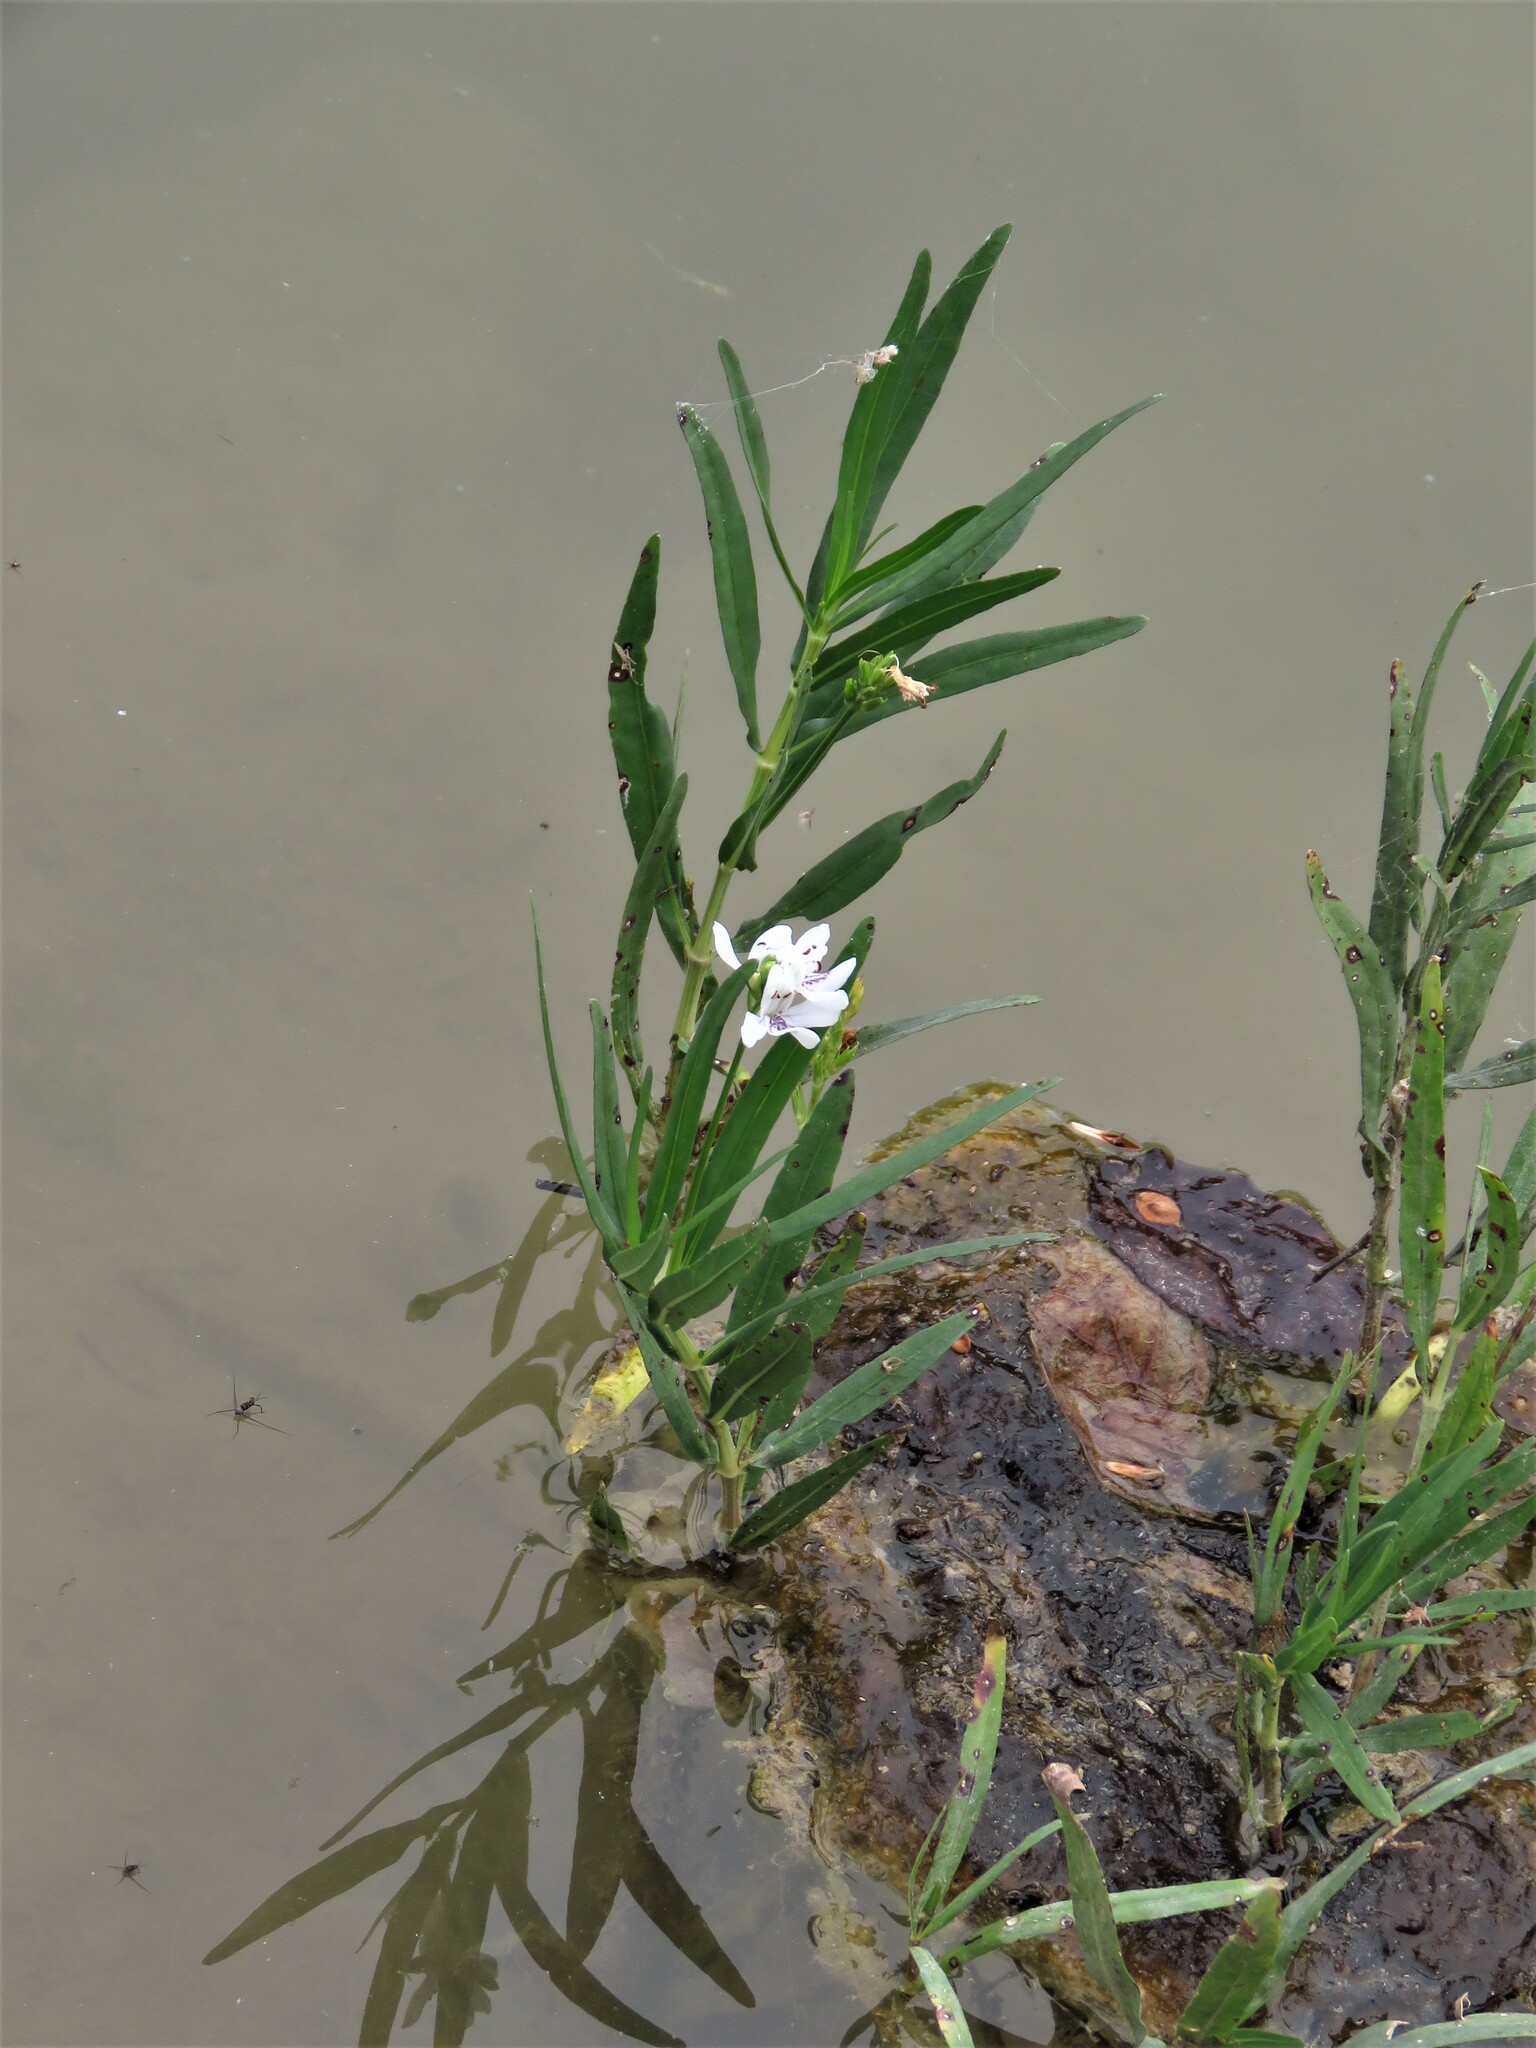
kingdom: Plantae
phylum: Tracheophyta
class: Magnoliopsida
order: Lamiales
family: Acanthaceae
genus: Dianthera
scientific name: Dianthera americana
